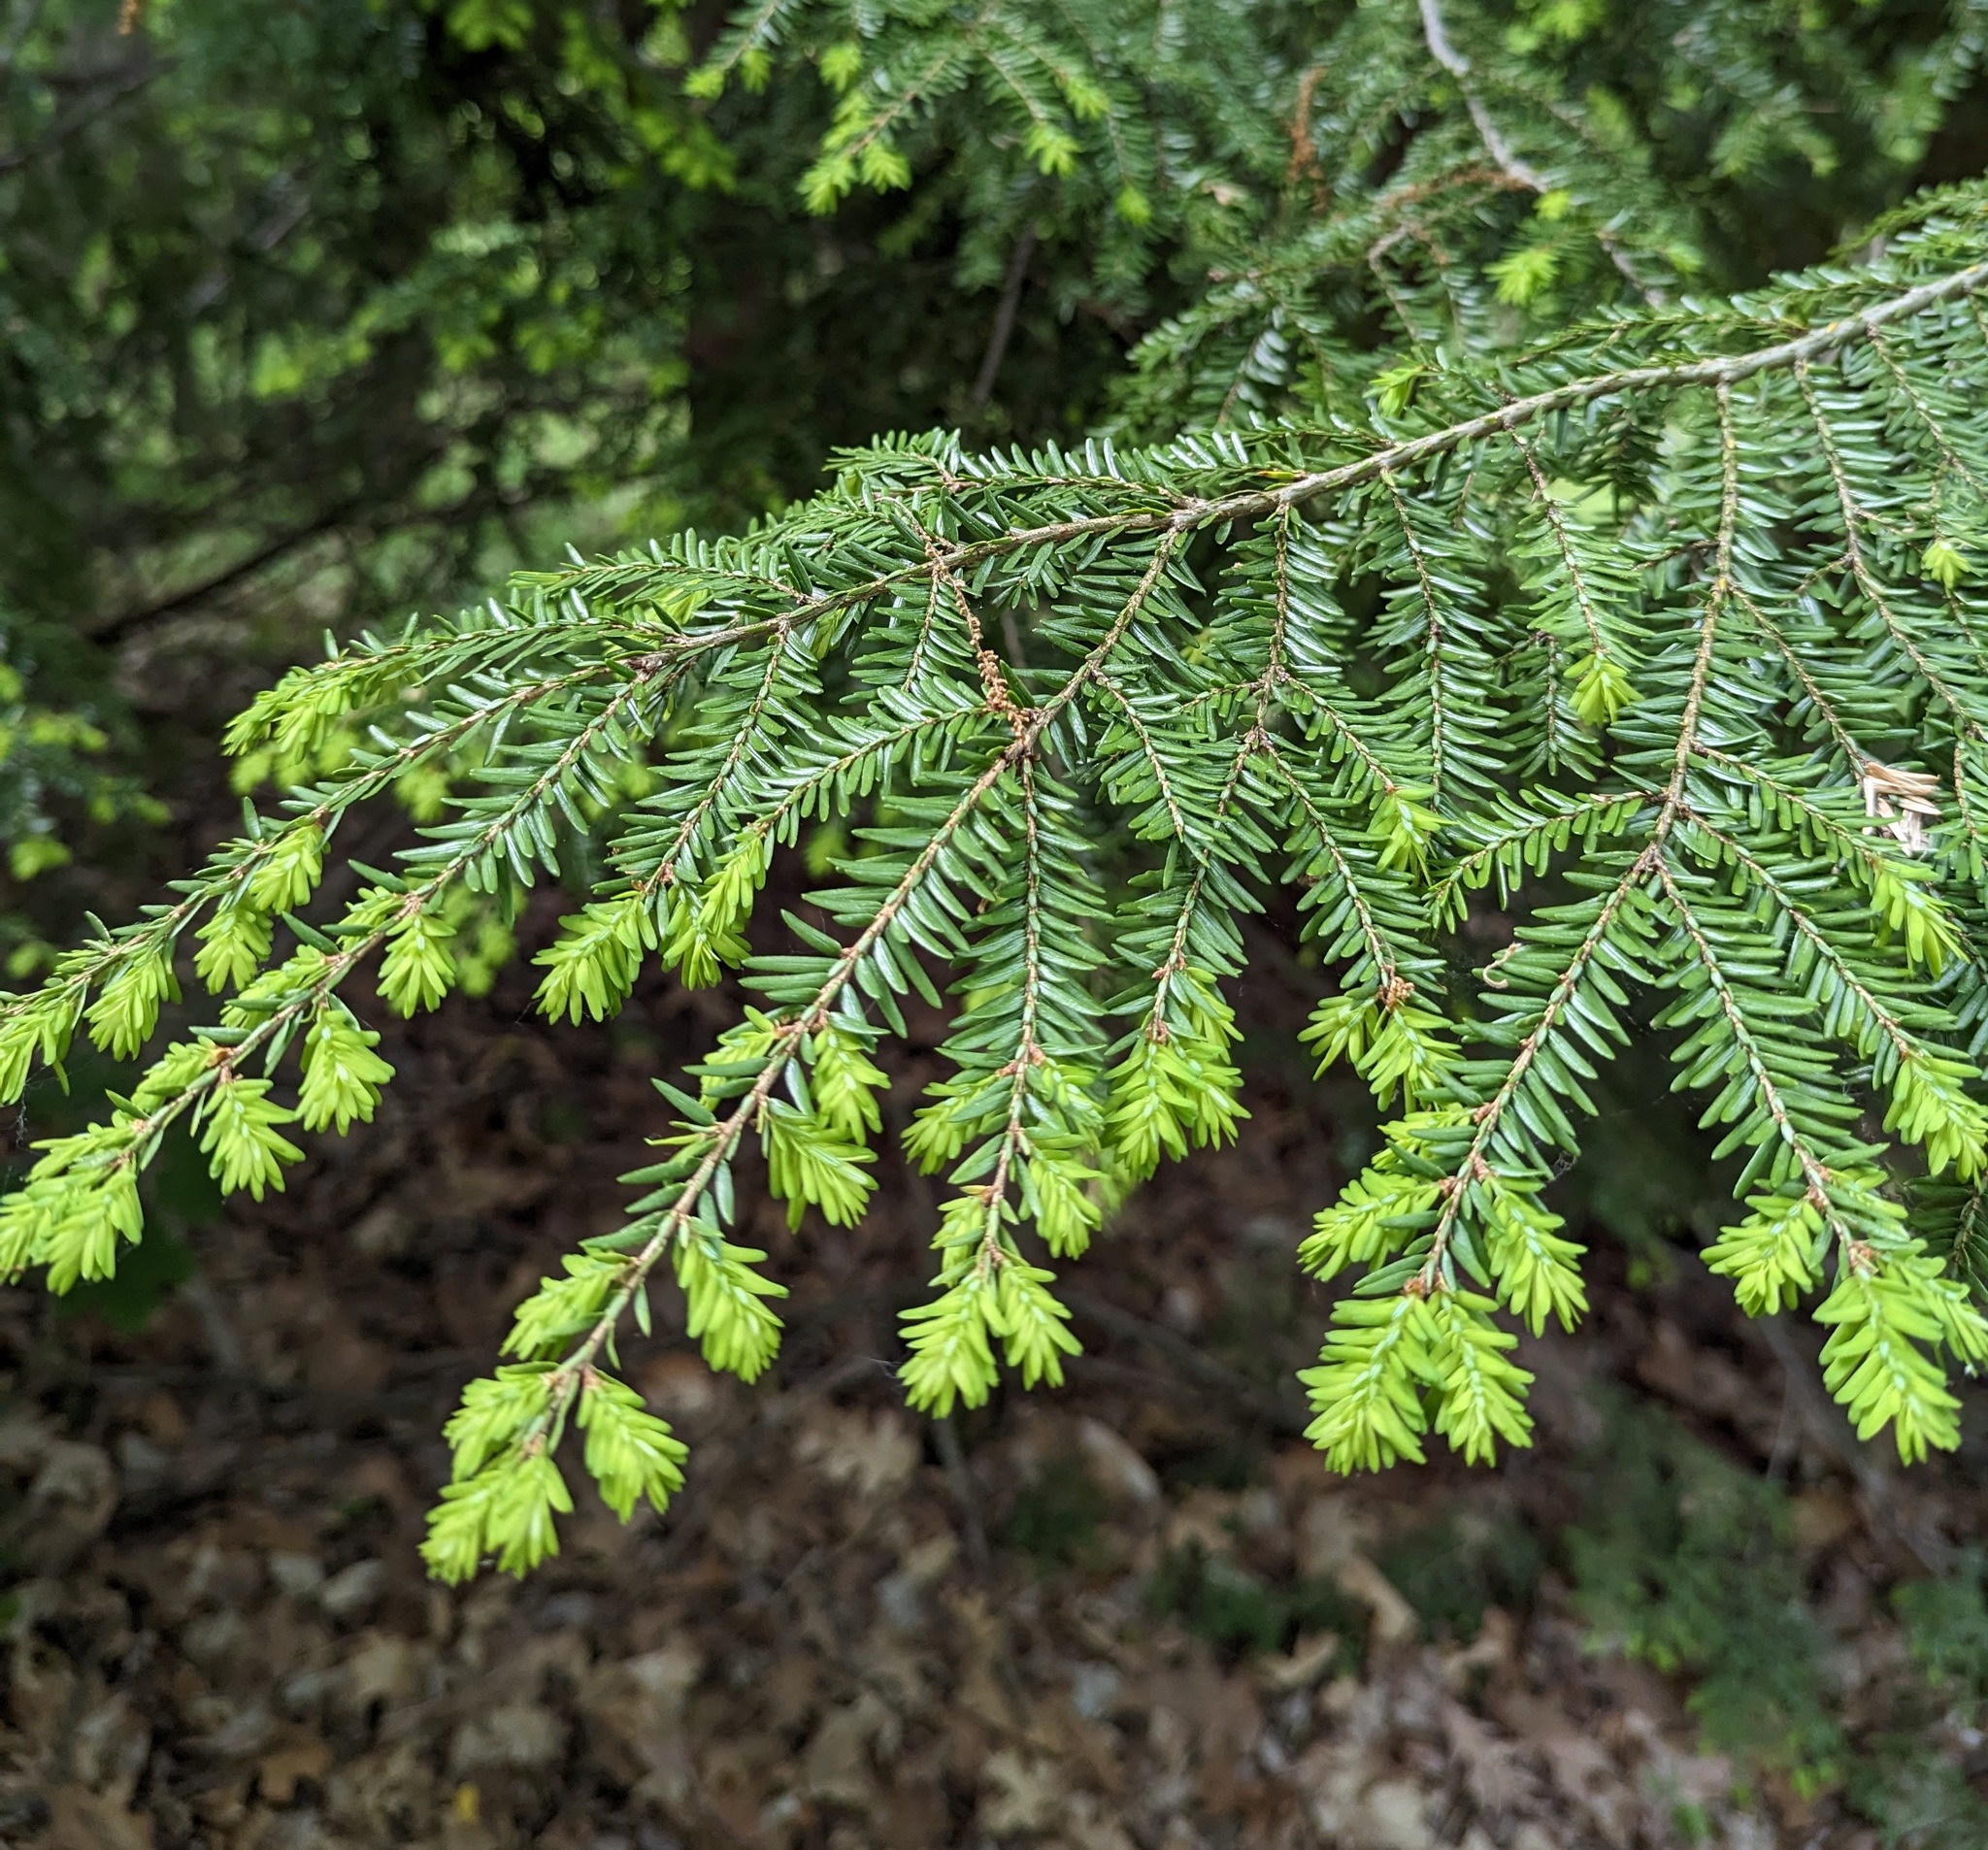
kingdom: Plantae
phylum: Tracheophyta
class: Pinopsida
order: Pinales
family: Pinaceae
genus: Tsuga
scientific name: Tsuga canadensis
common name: Eastern hemlock
